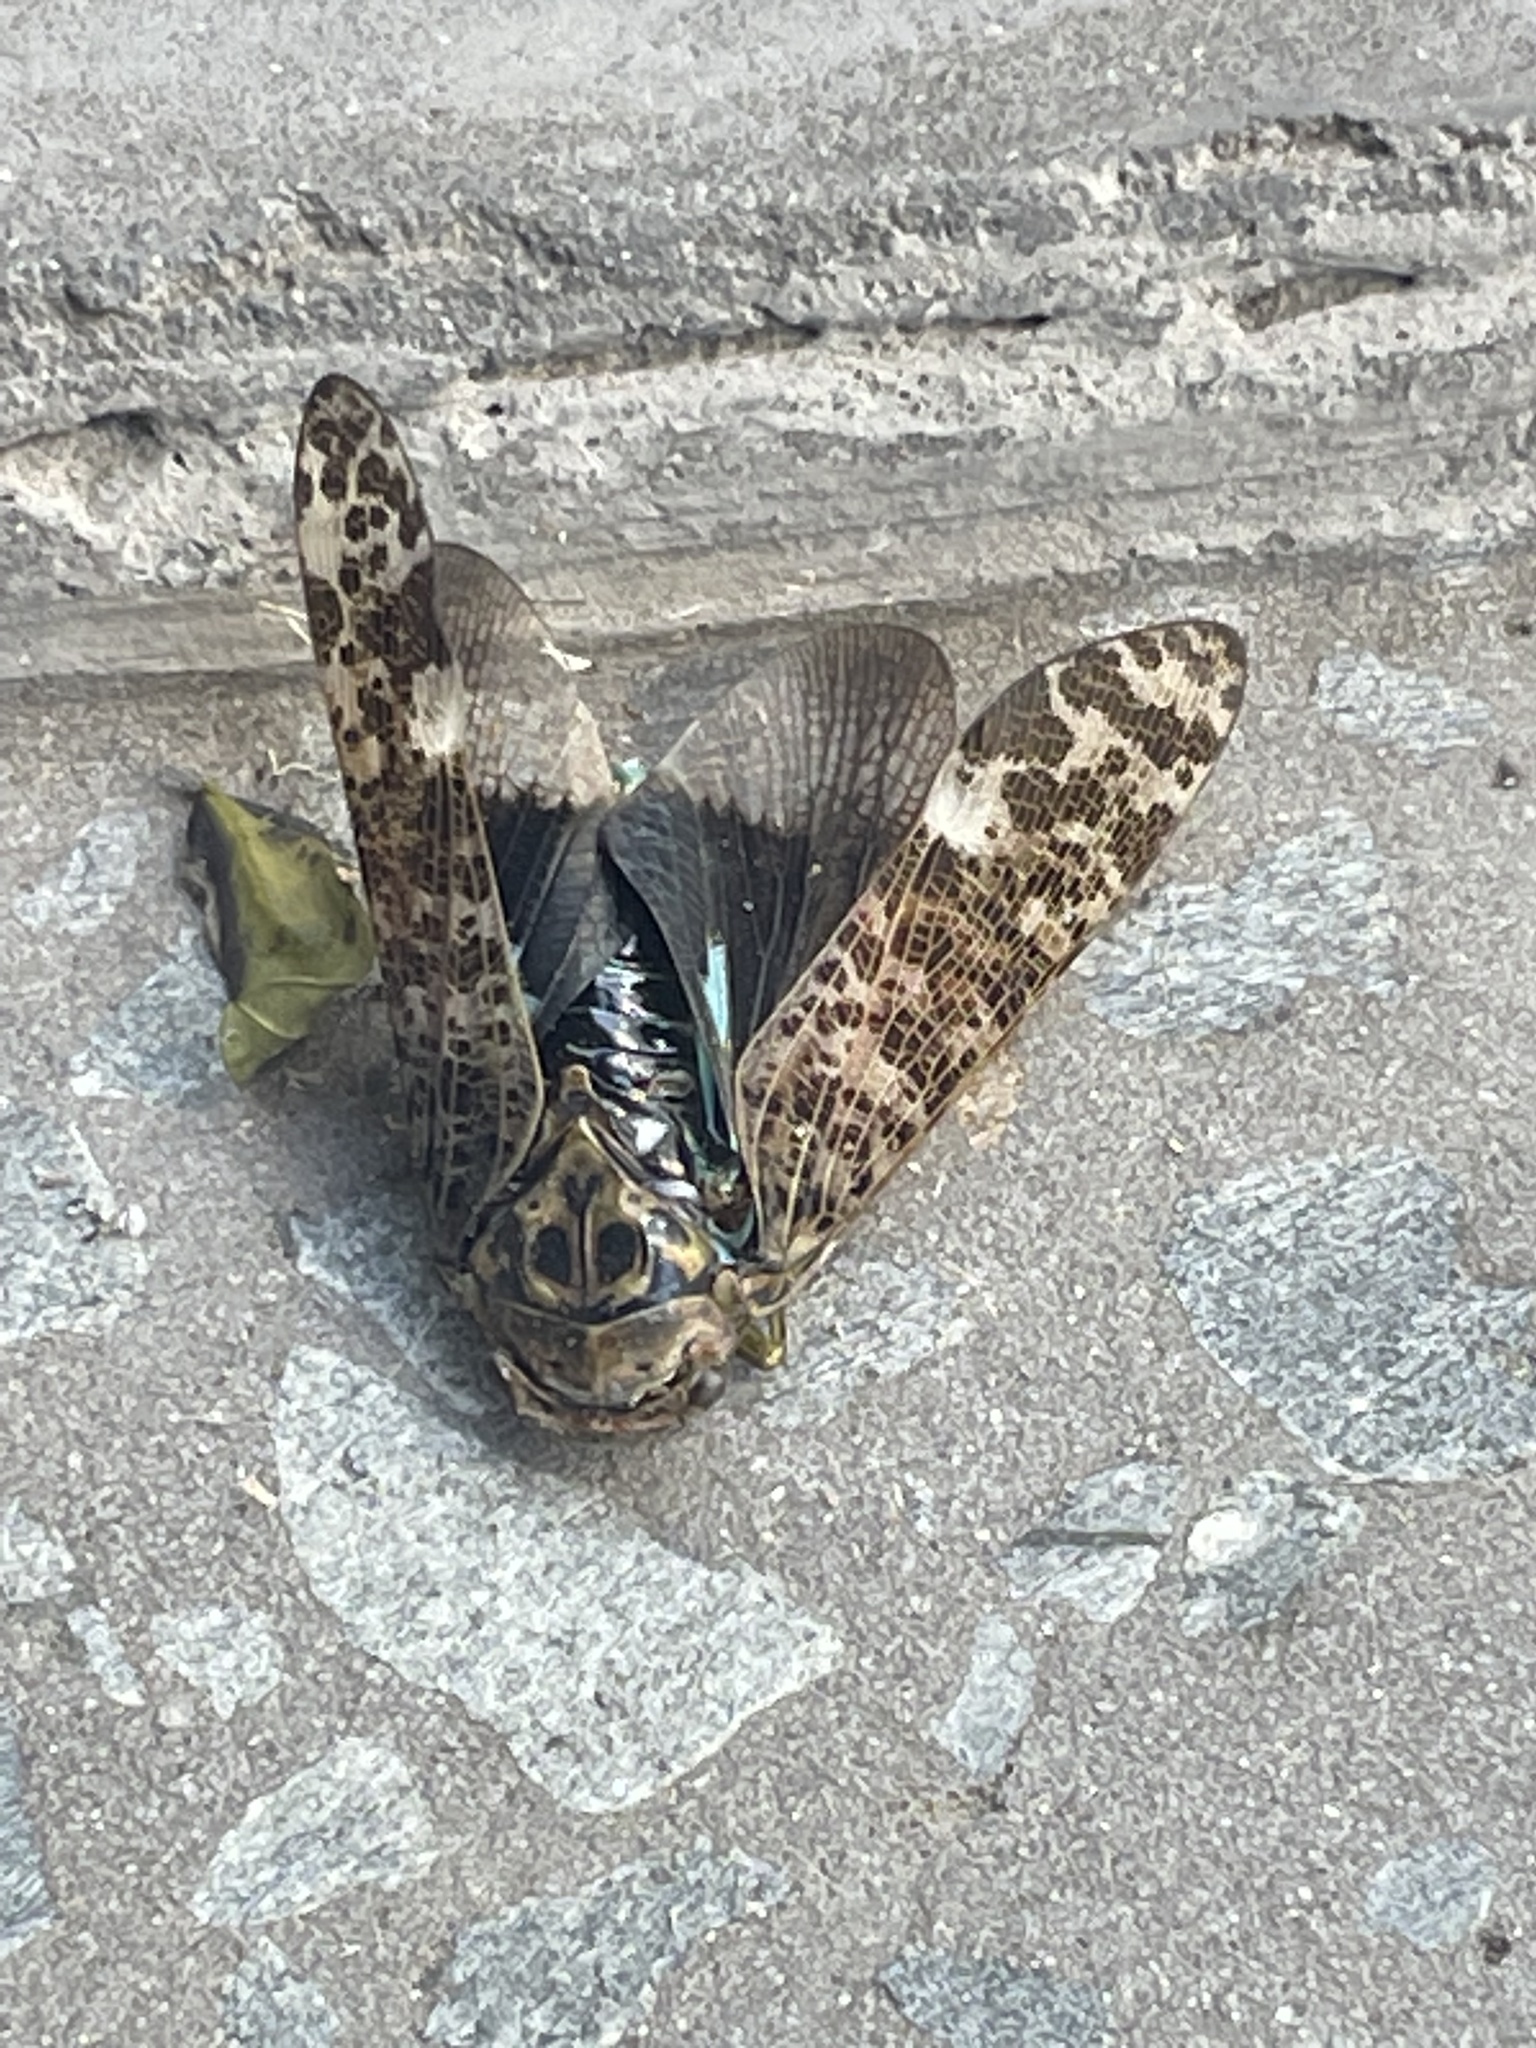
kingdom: Animalia
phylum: Arthropoda
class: Insecta
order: Hemiptera
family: Fulgoridae
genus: Desudaboides
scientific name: Desudaboides melindae
